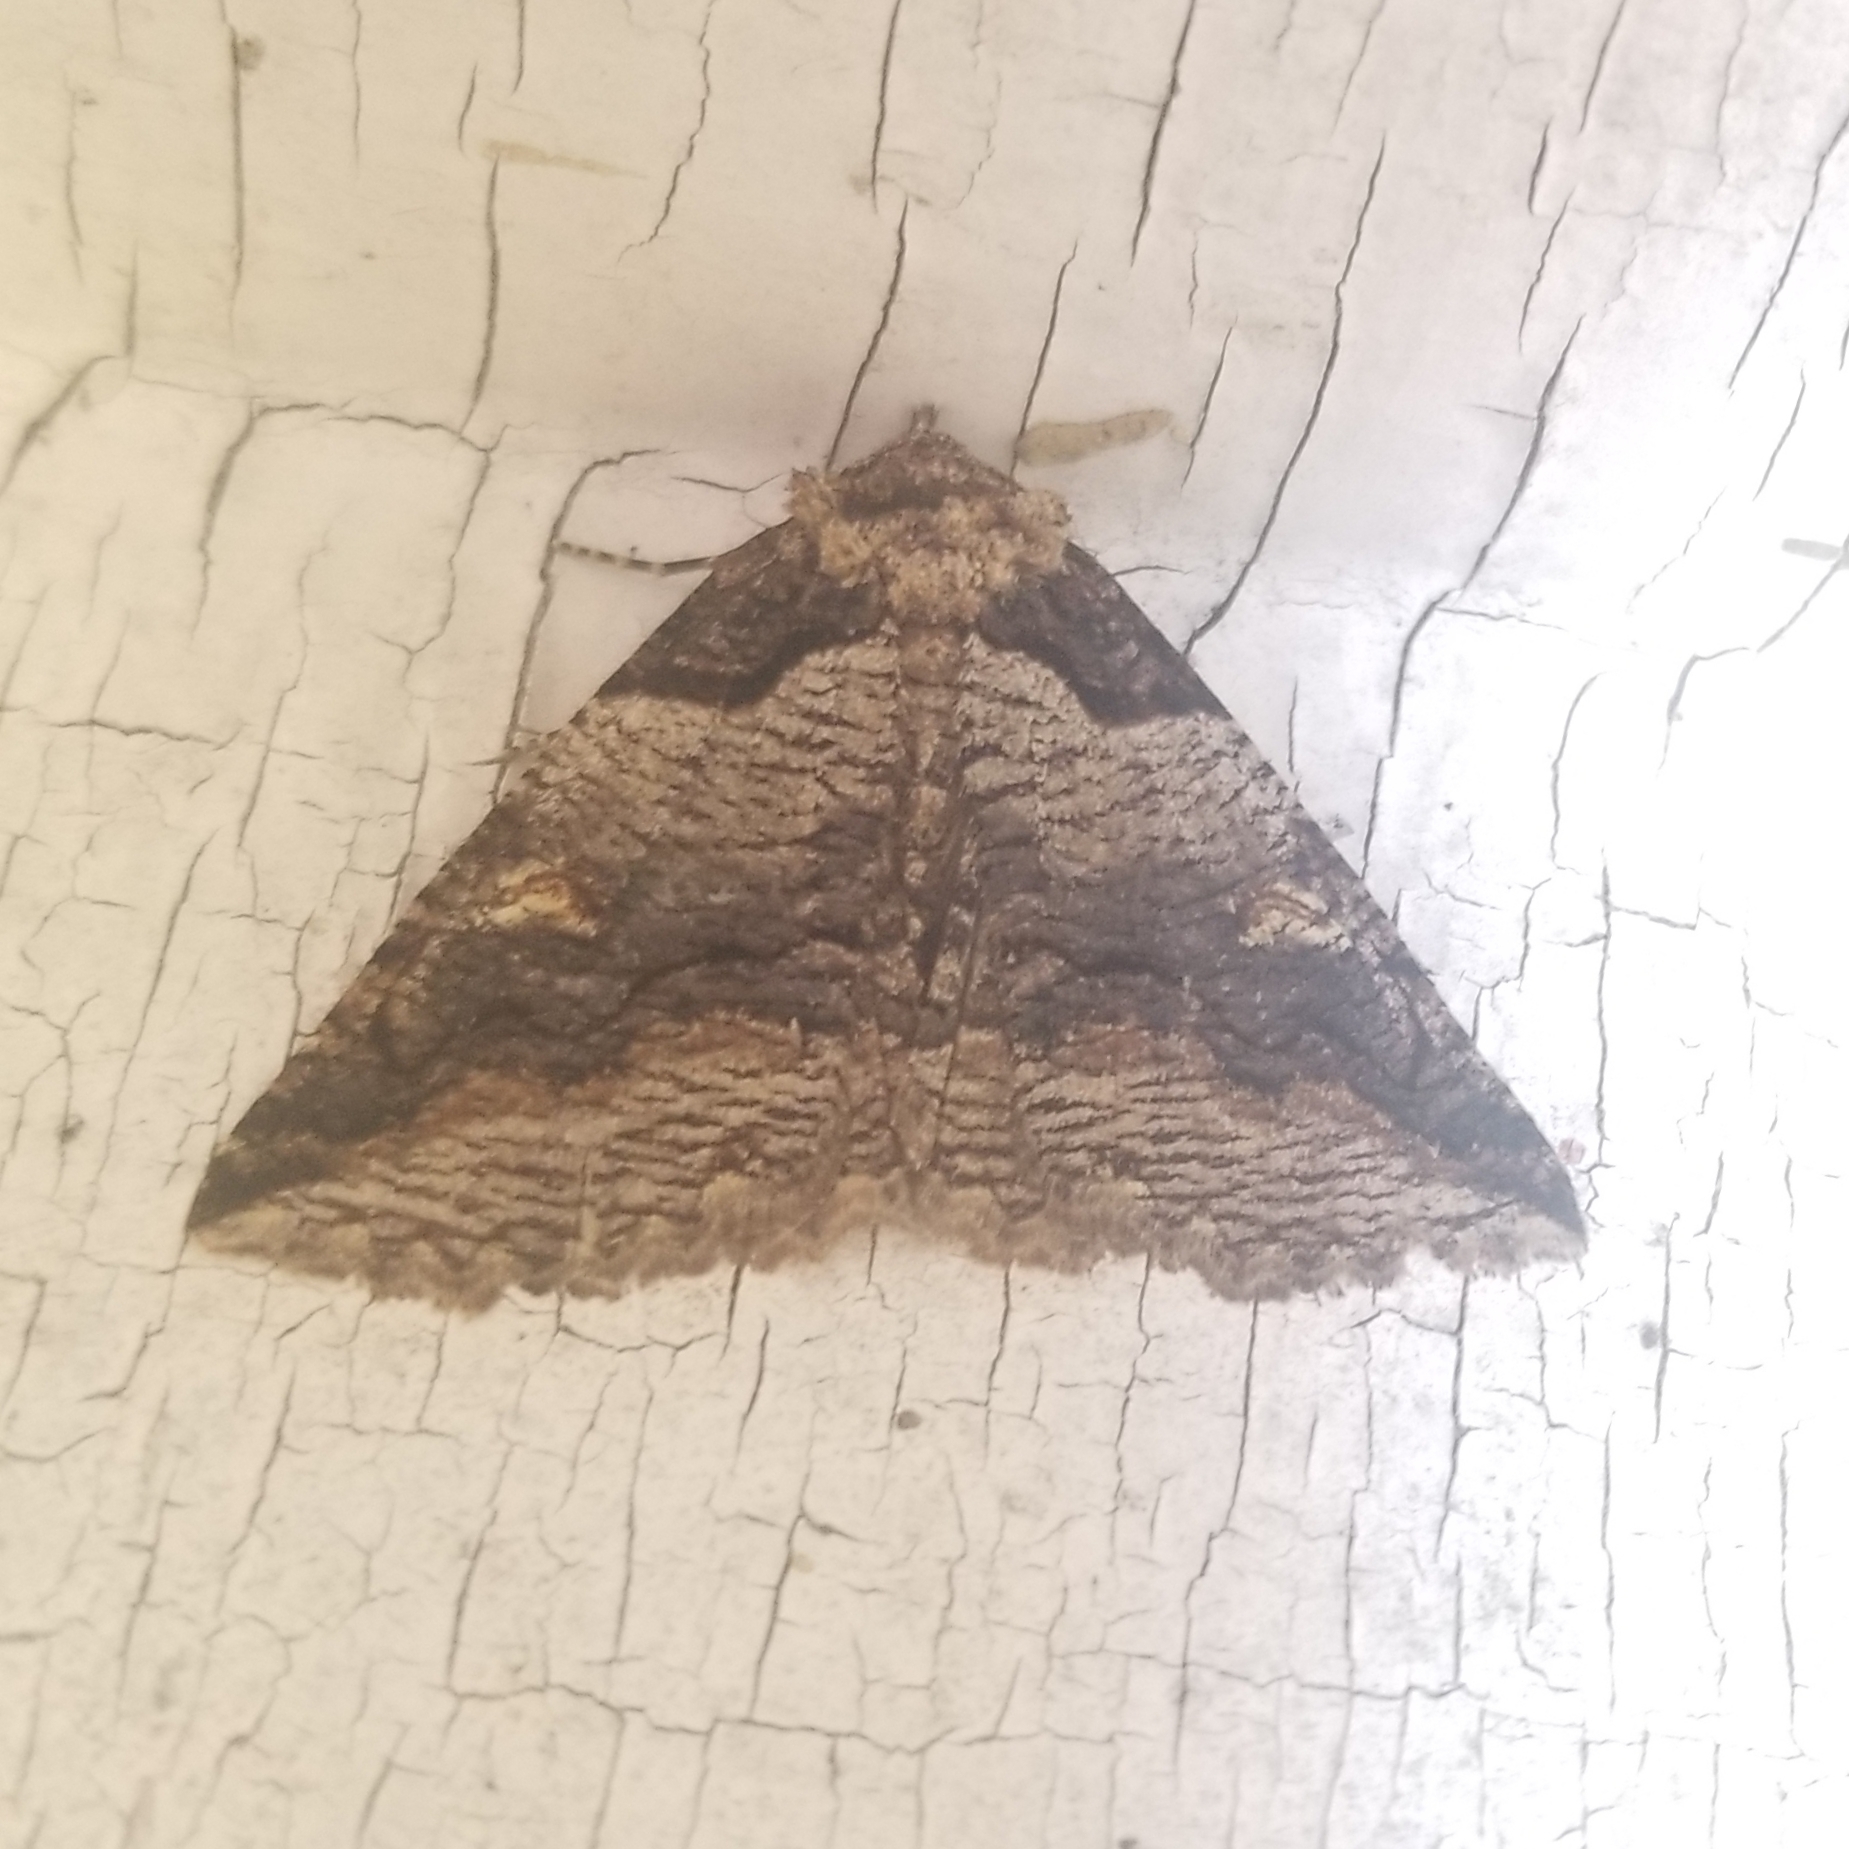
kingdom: Animalia
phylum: Arthropoda
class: Insecta
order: Lepidoptera
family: Erebidae
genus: Zale
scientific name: Zale intenta
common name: Intent zale moth
